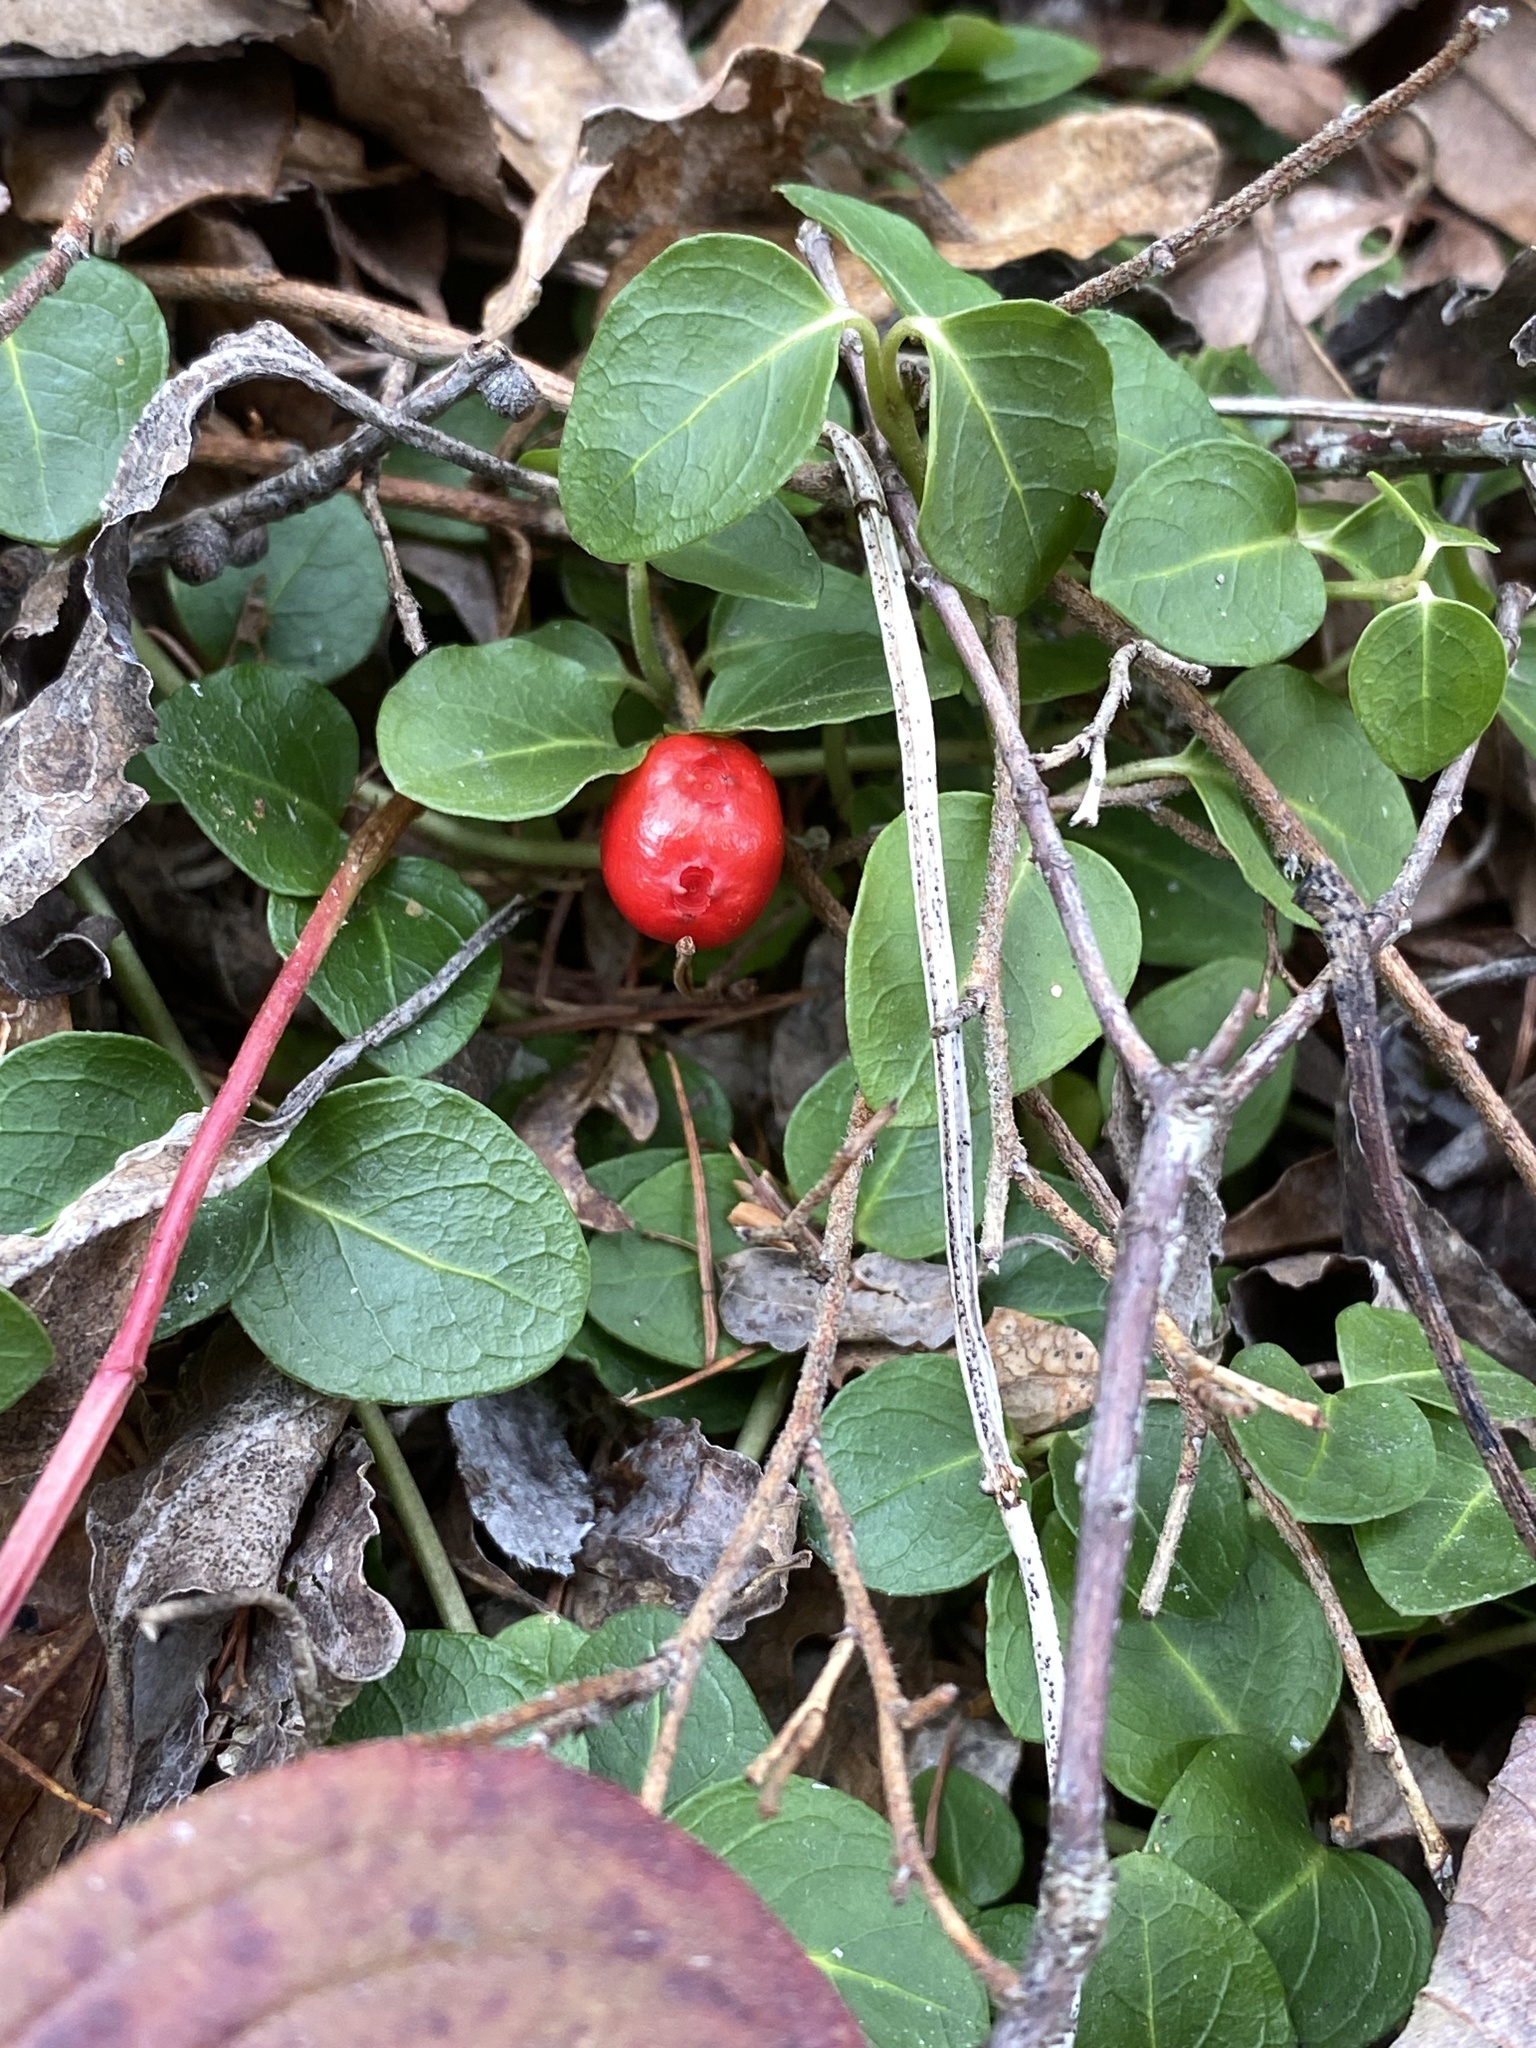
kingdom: Plantae
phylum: Tracheophyta
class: Magnoliopsida
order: Gentianales
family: Rubiaceae
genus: Mitchella
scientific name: Mitchella repens
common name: Partridge-berry
